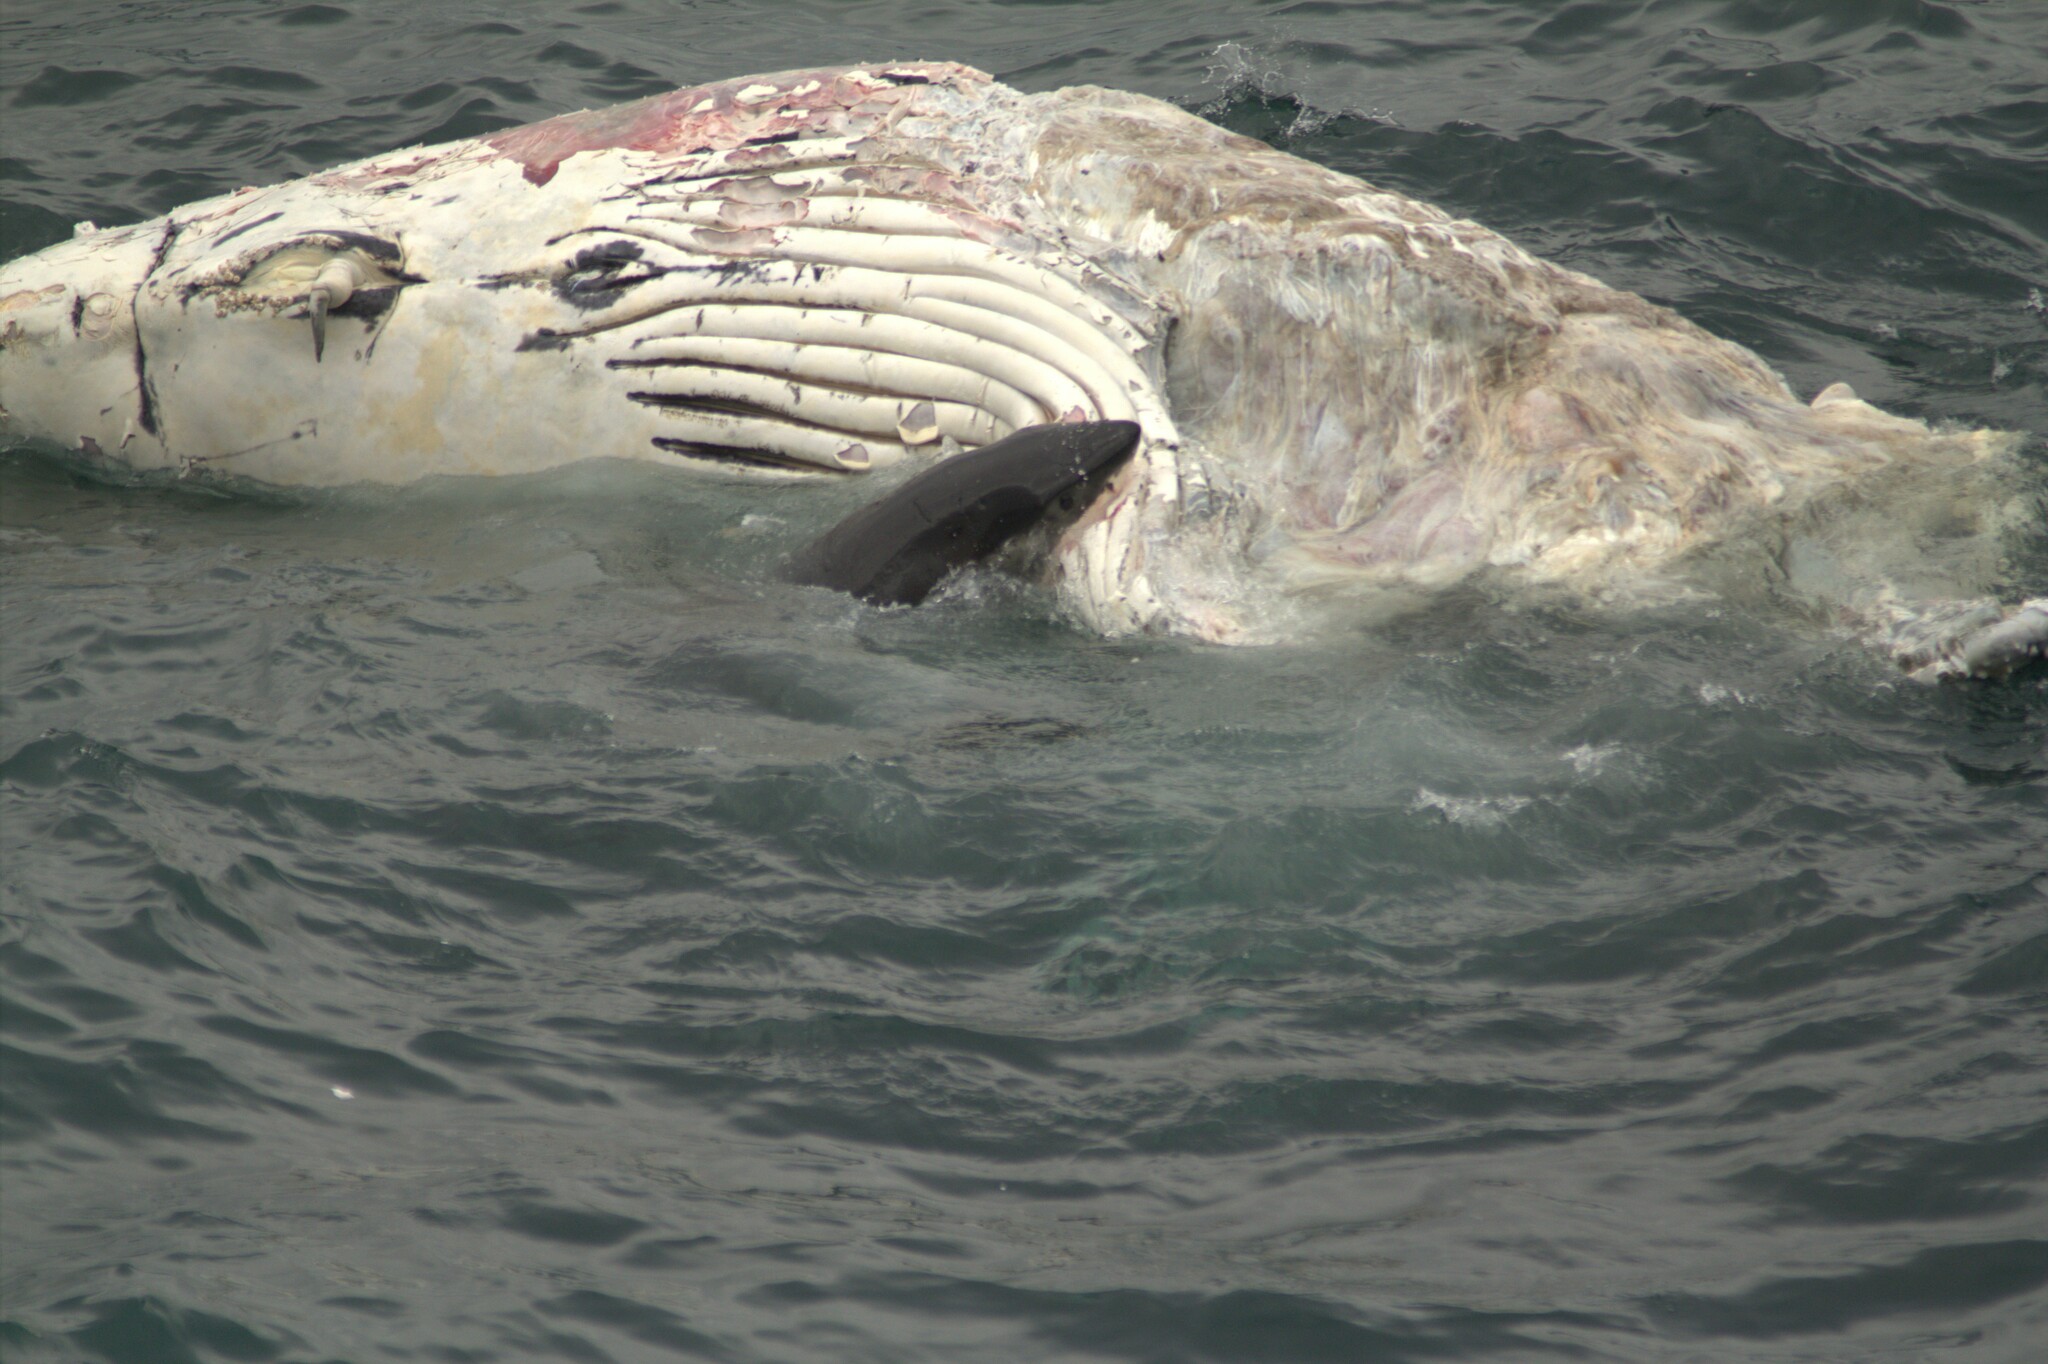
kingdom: Animalia
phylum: Chordata
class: Elasmobranchii
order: Lamniformes
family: Lamnidae
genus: Carcharodon
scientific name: Carcharodon carcharias
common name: Great white shark
